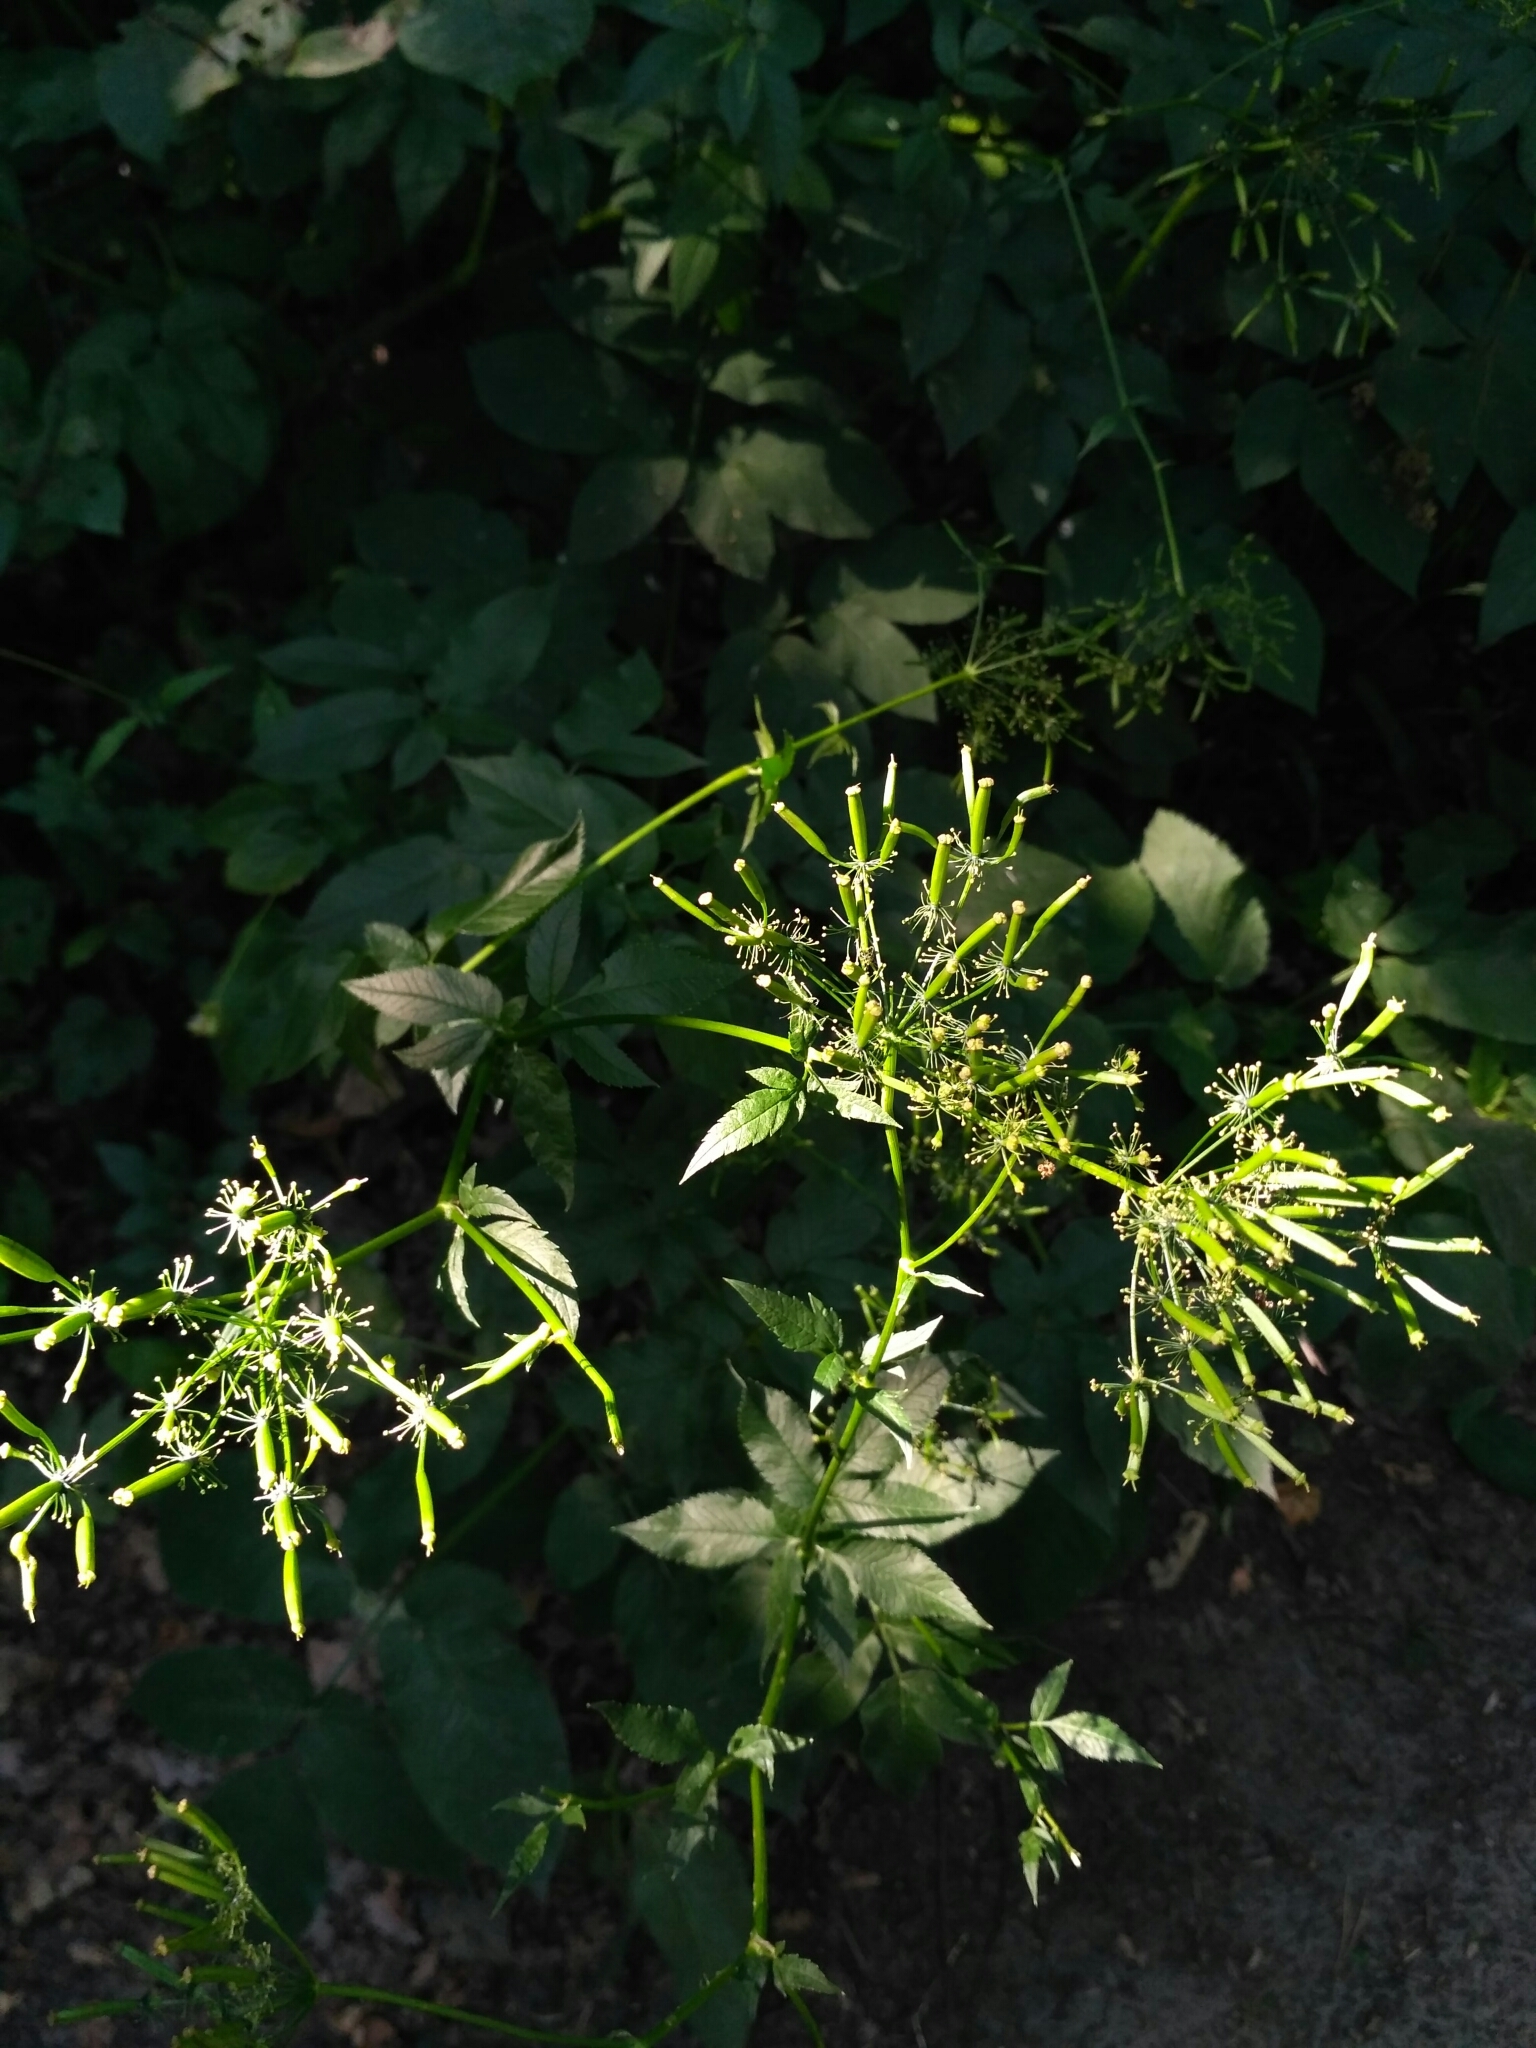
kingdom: Plantae
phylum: Tracheophyta
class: Magnoliopsida
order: Apiales
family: Apiaceae
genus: Chaerophyllum
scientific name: Chaerophyllum aromaticum
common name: Broadleaf chervil
